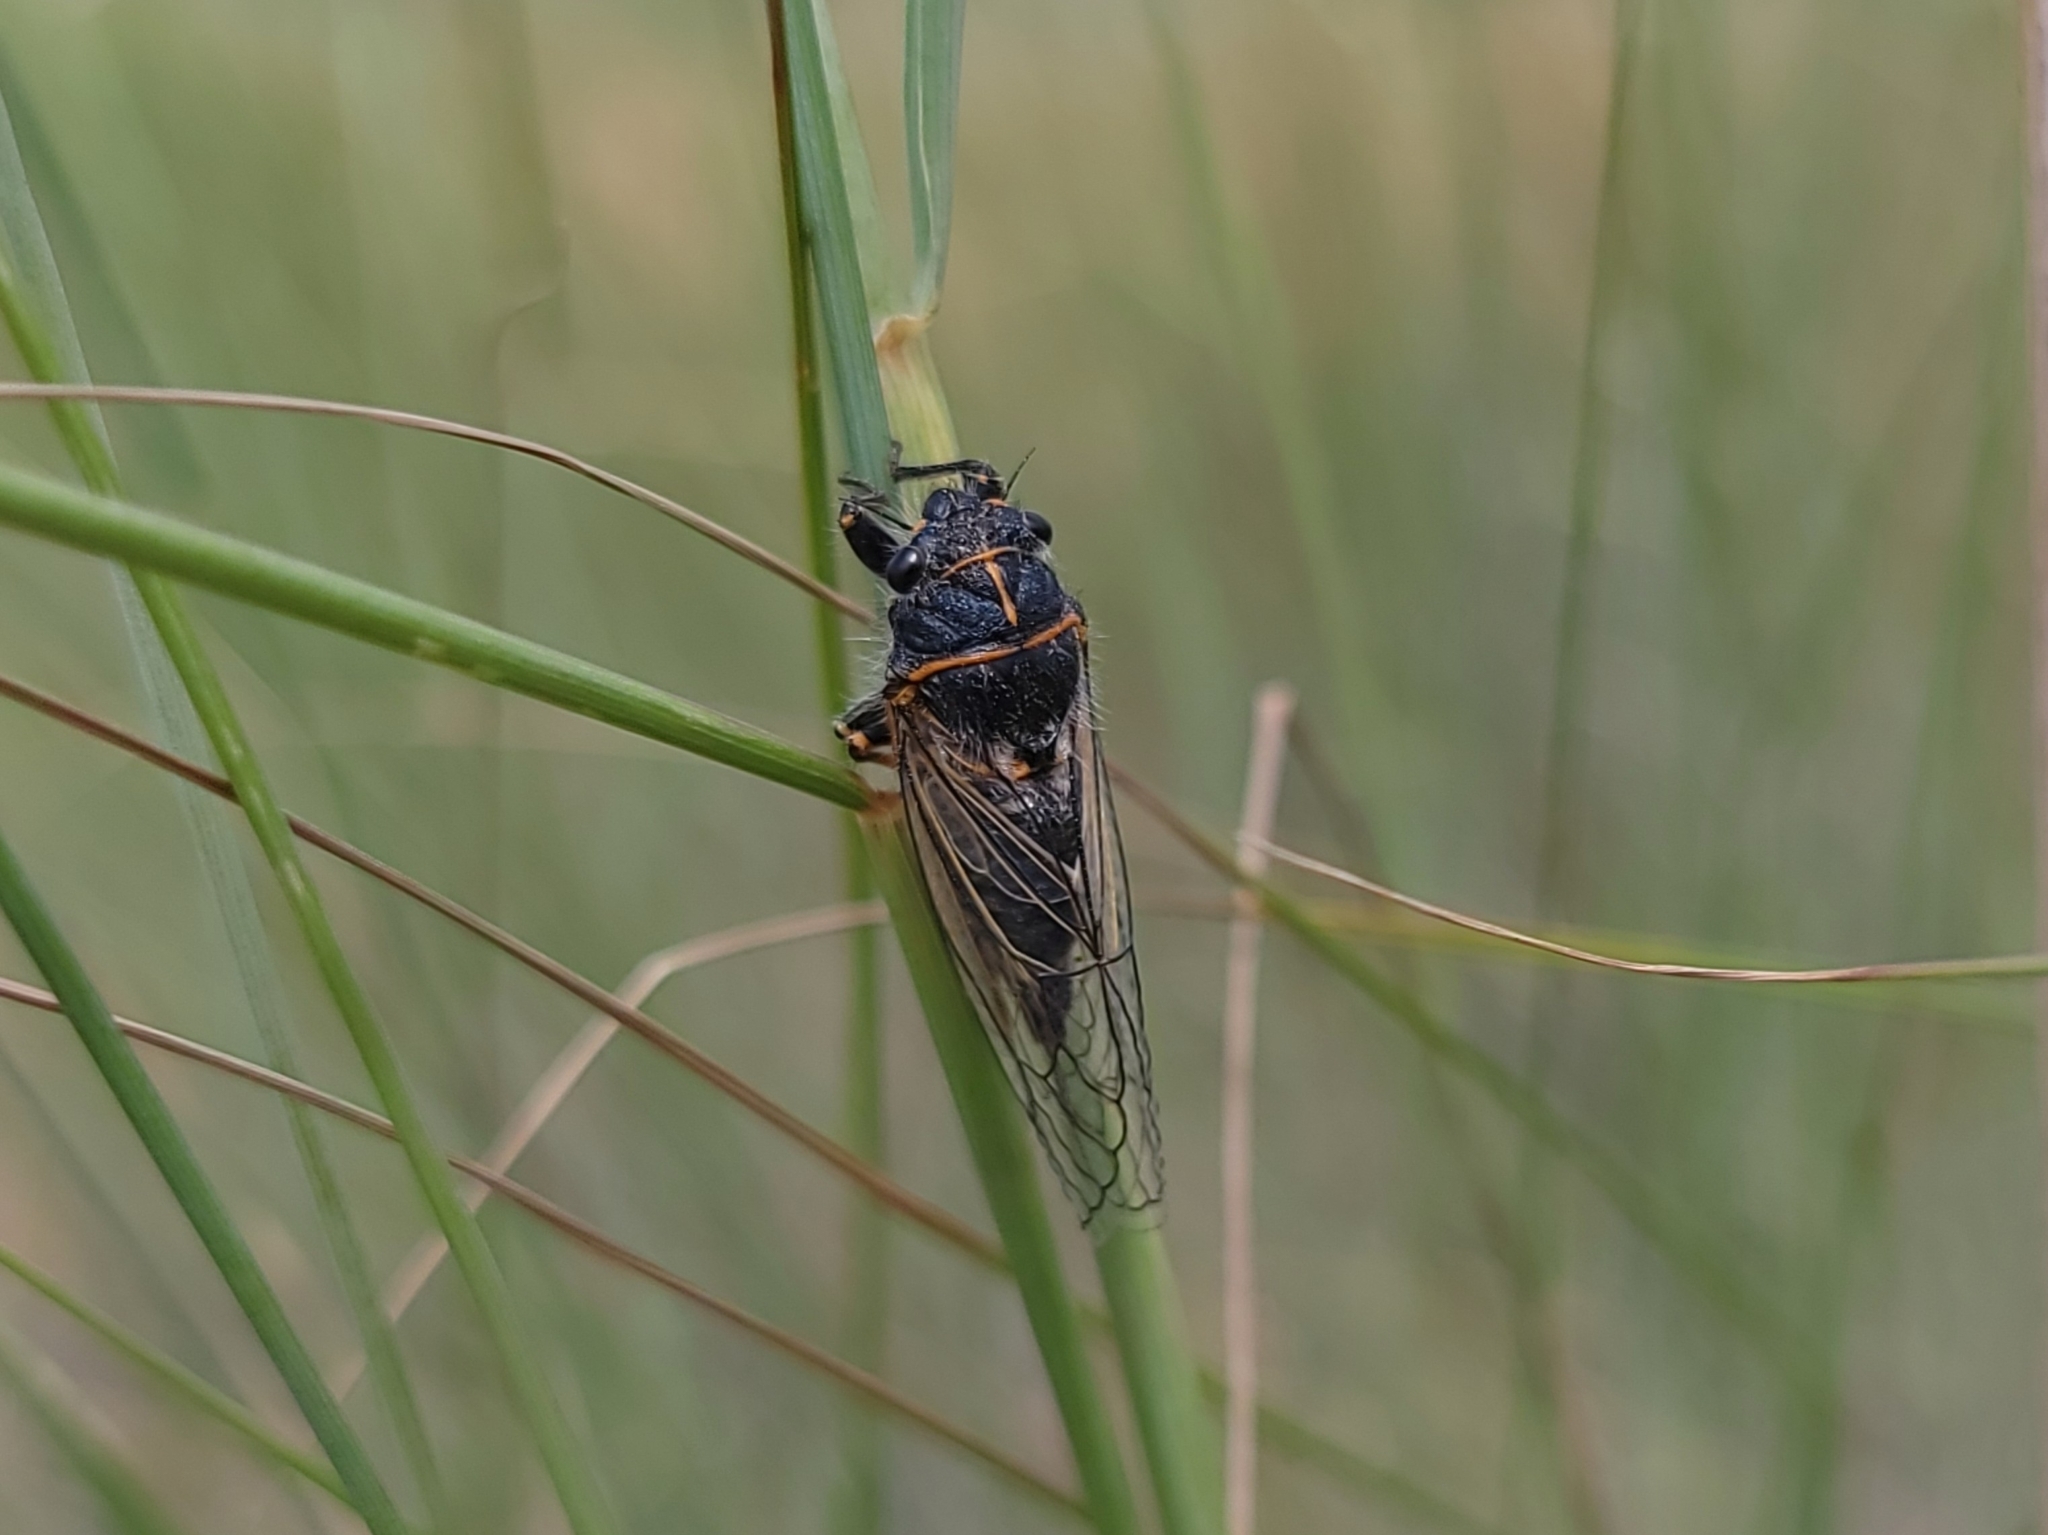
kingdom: Animalia
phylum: Arthropoda
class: Insecta
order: Hemiptera
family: Cicadidae
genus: Neoplatypedia
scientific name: Neoplatypedia constricta
